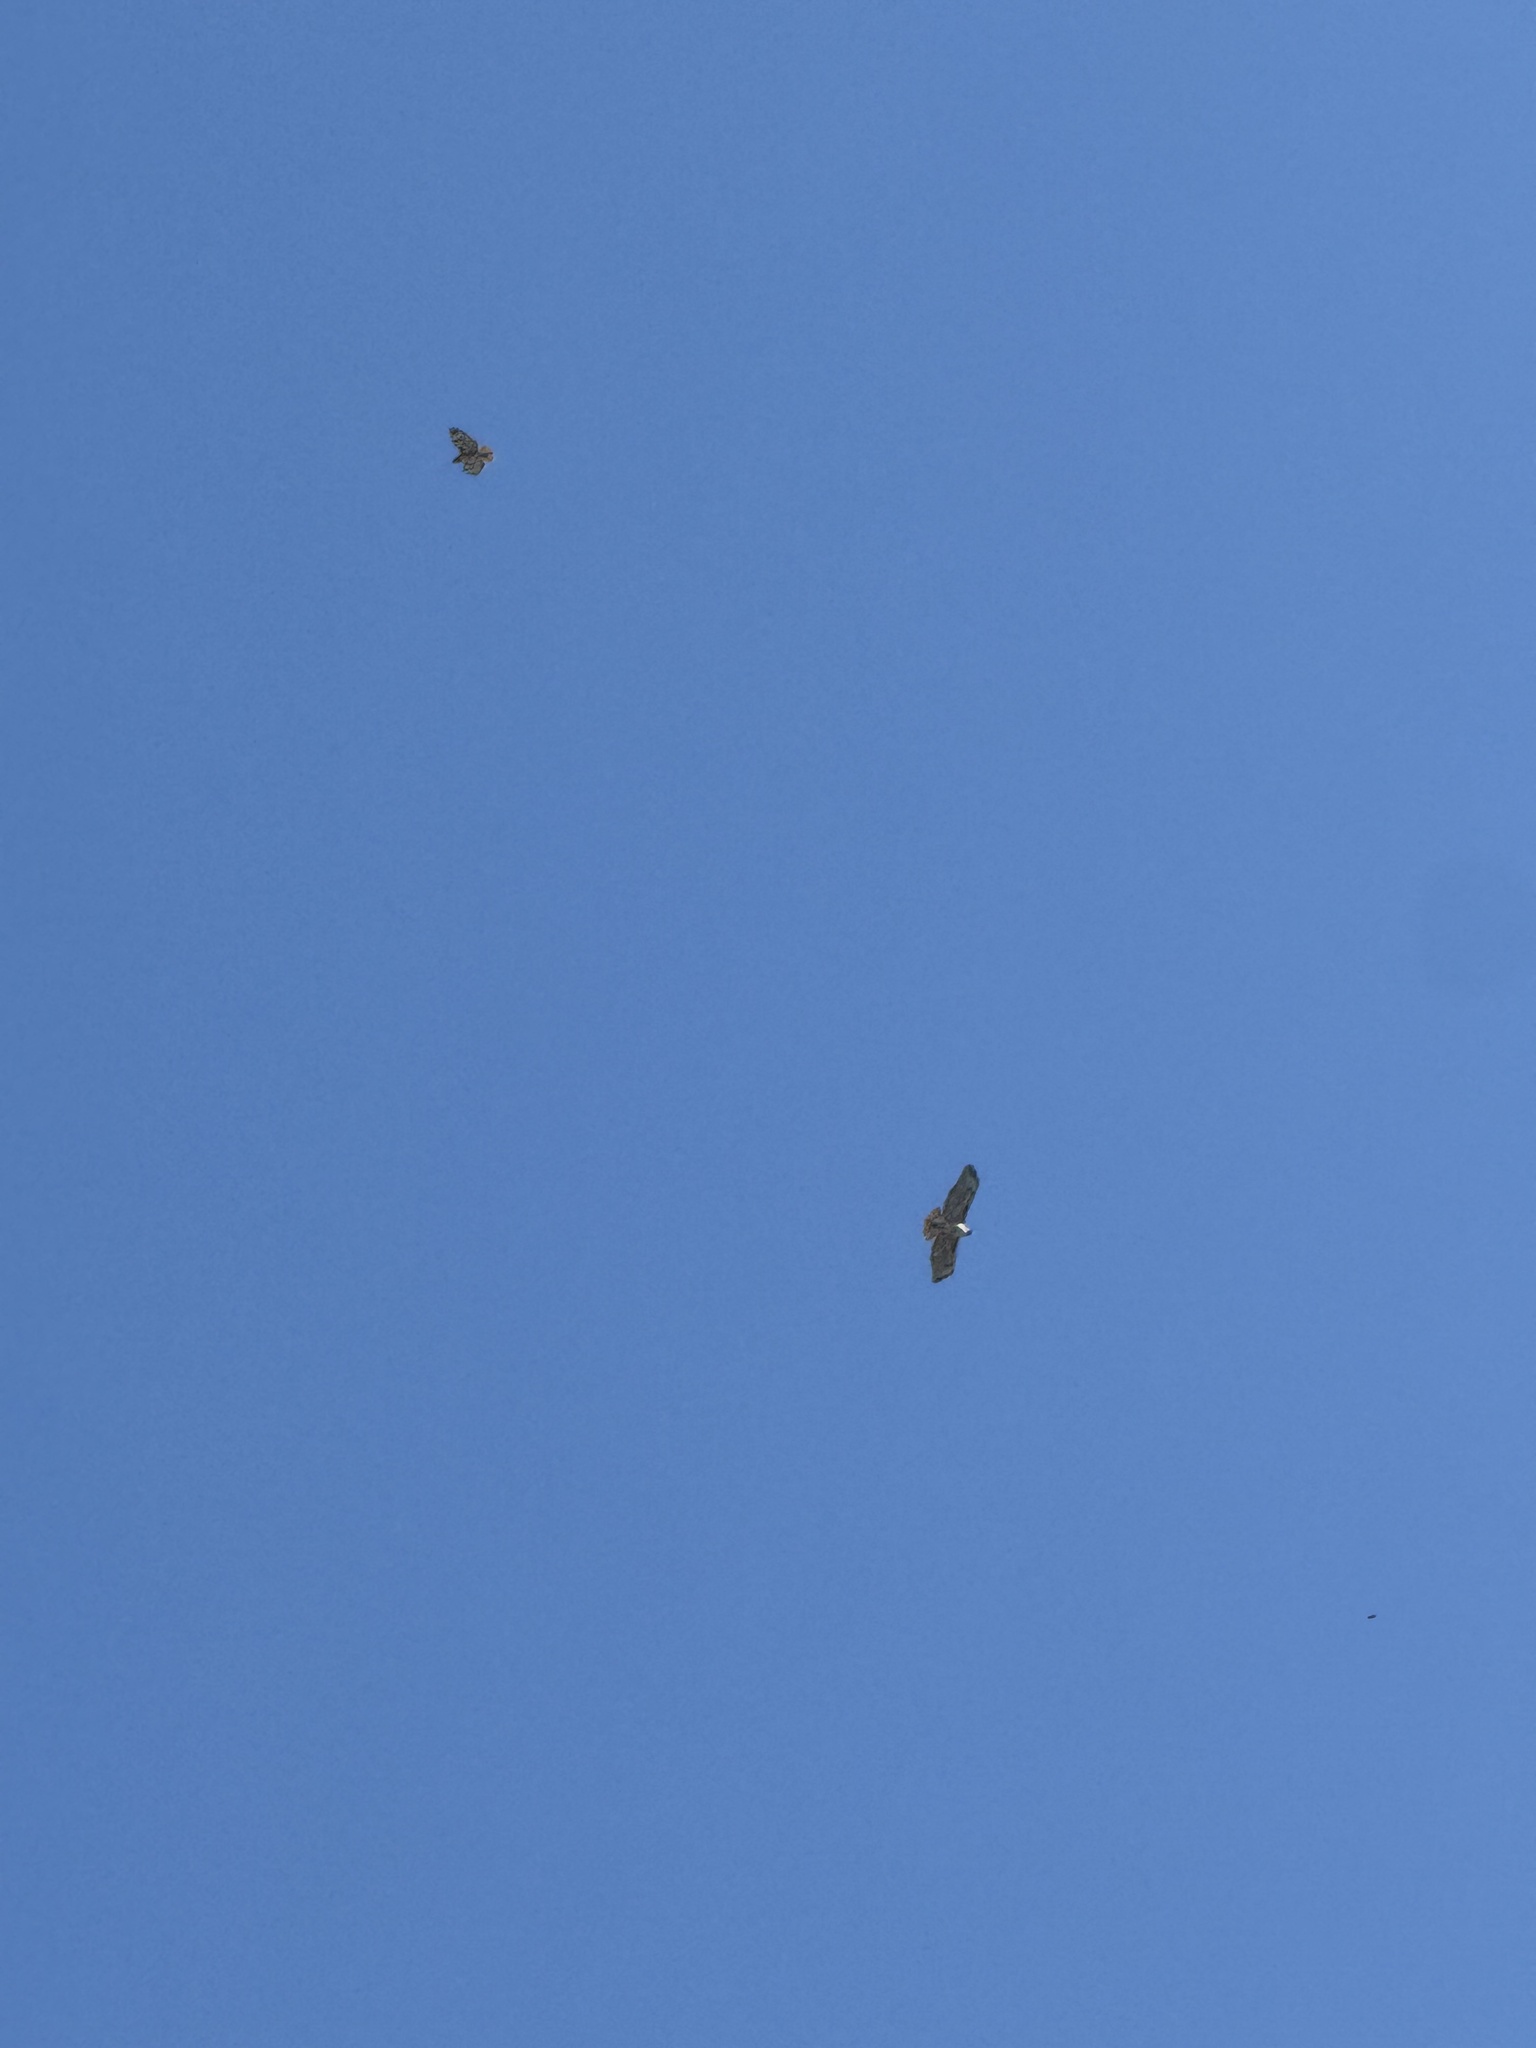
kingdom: Animalia
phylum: Chordata
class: Aves
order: Accipitriformes
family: Accipitridae
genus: Buteo
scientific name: Buteo jamaicensis
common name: Red-tailed hawk
